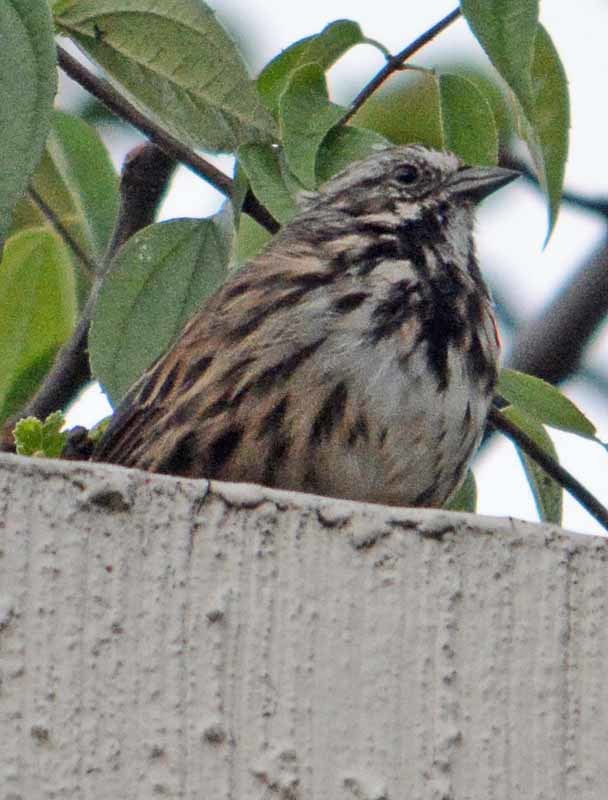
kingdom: Animalia
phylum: Chordata
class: Aves
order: Passeriformes
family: Passerellidae
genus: Melospiza
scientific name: Melospiza melodia
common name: Song sparrow
